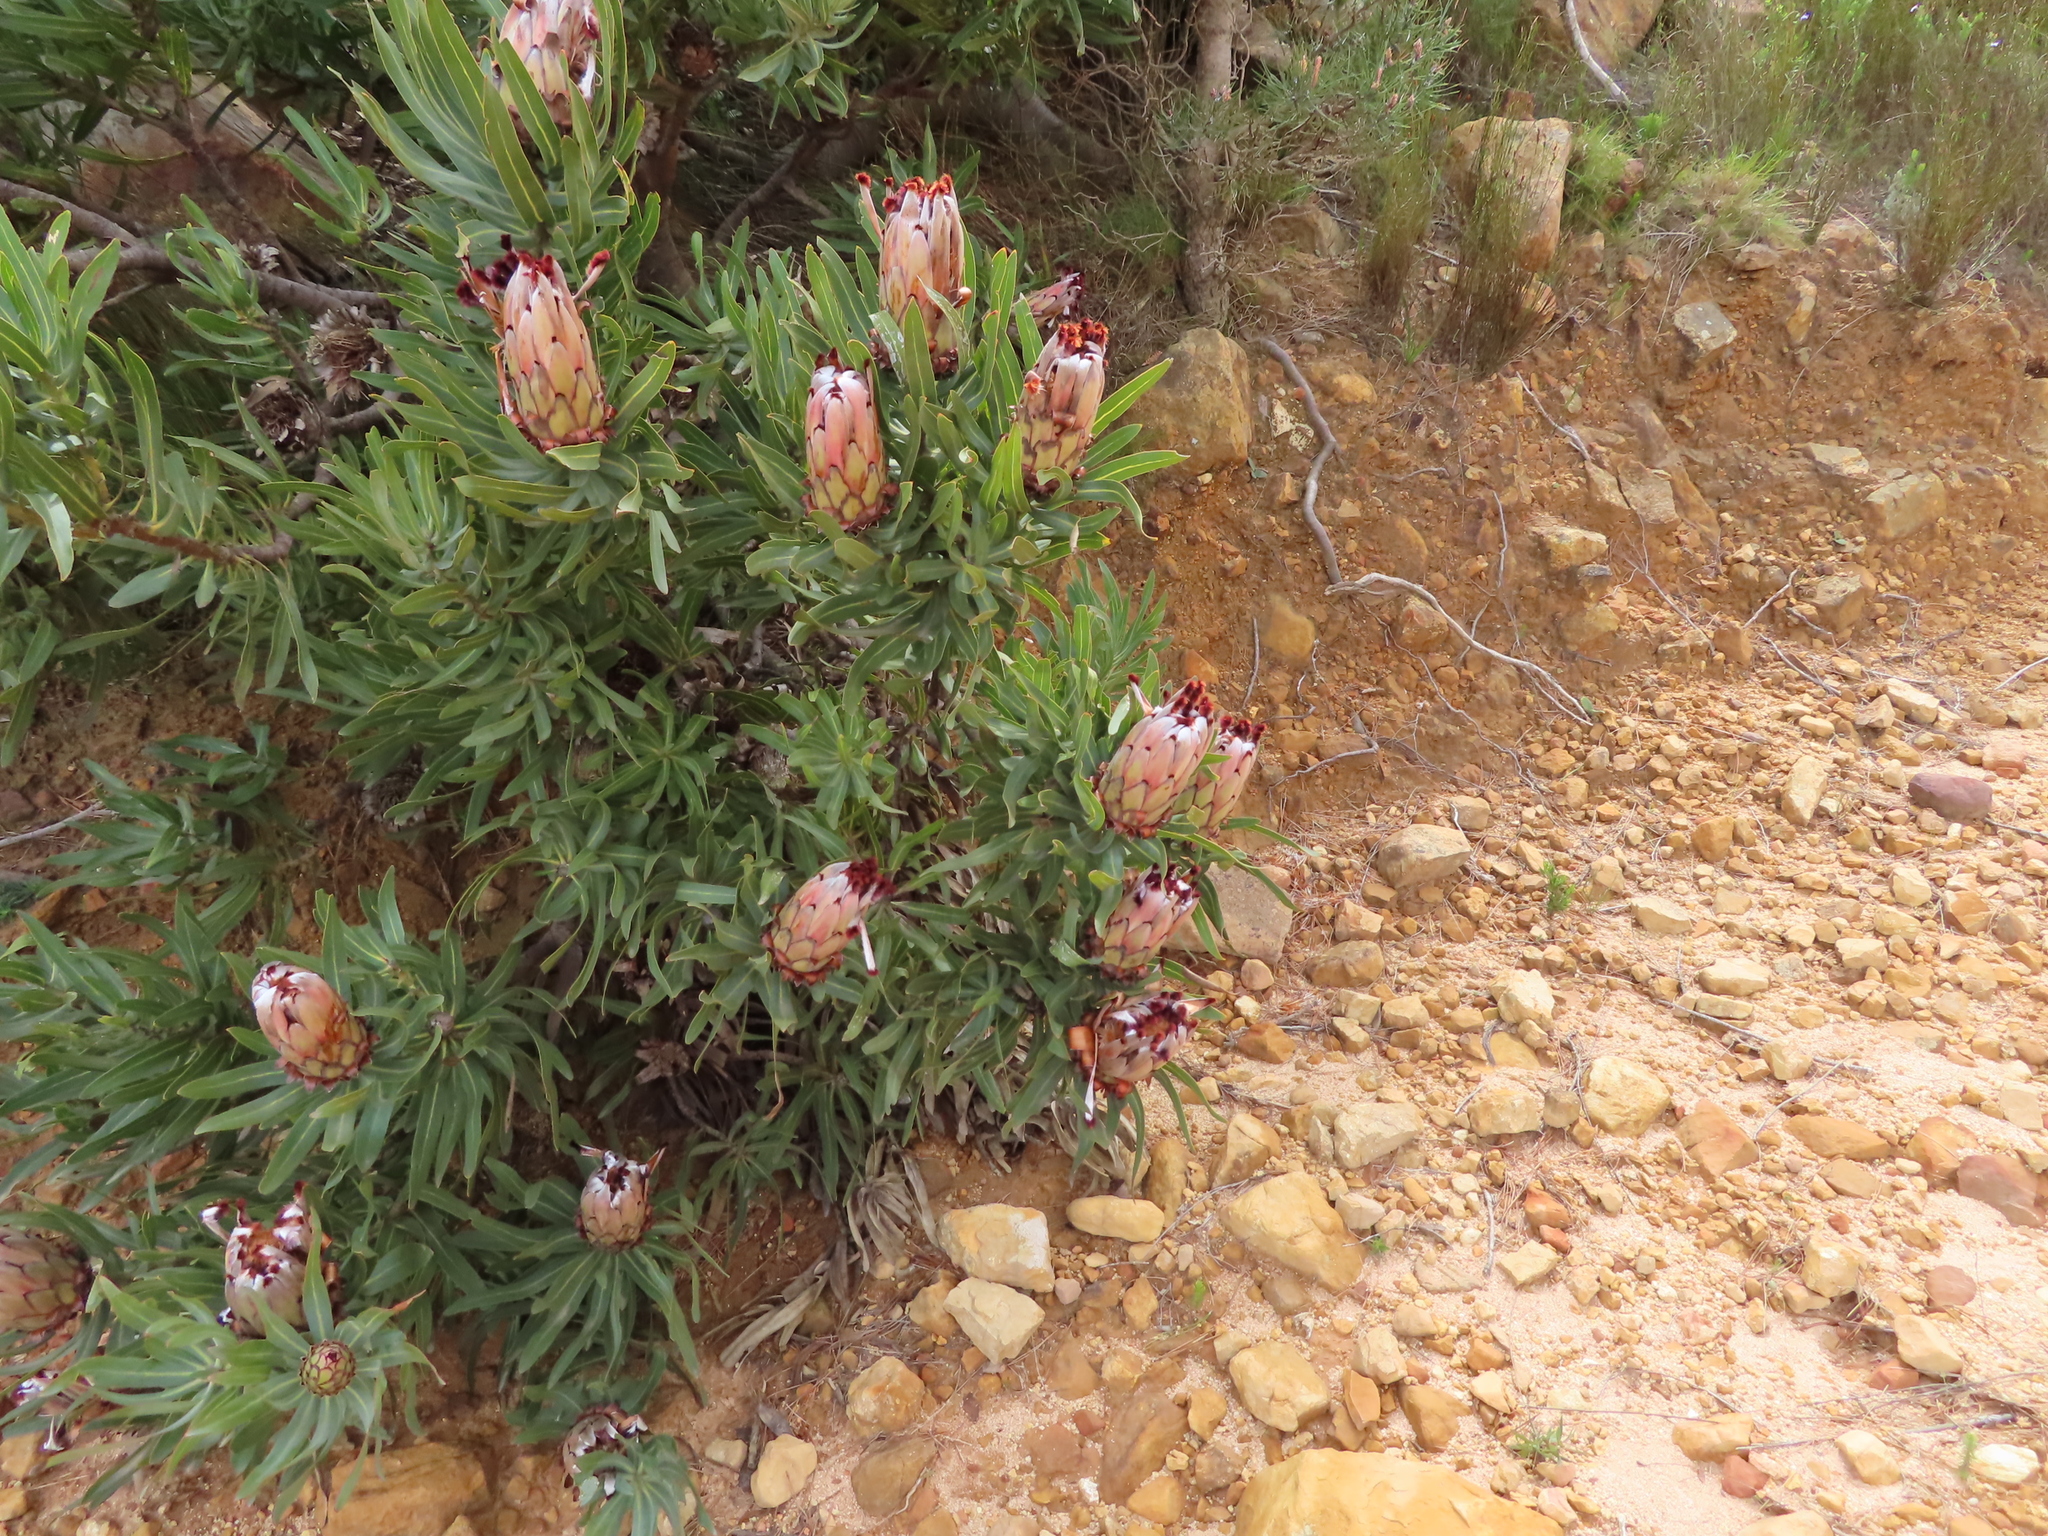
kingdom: Plantae
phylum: Tracheophyta
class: Magnoliopsida
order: Proteales
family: Proteaceae
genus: Protea
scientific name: Protea neriifolia
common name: Blue sugarbush
